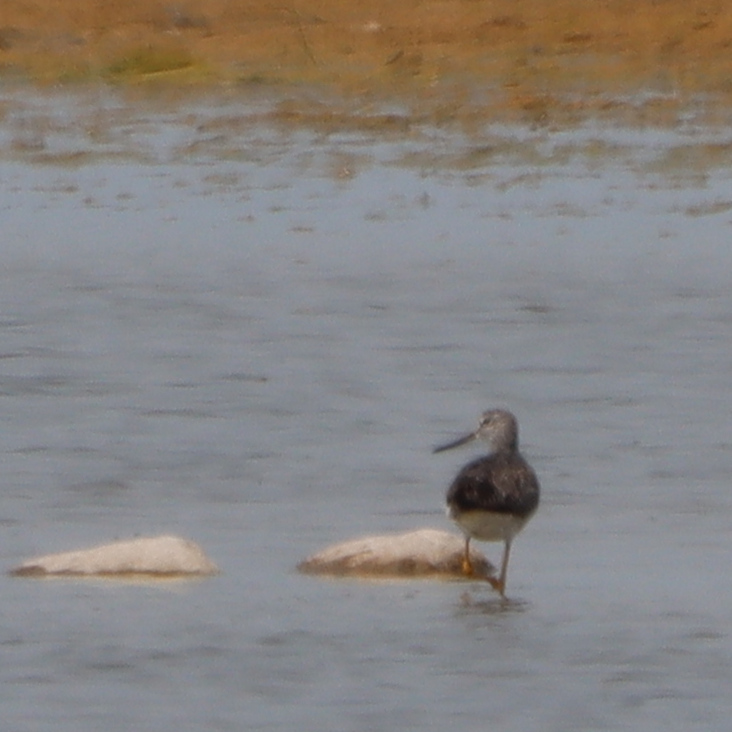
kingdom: Animalia
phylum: Chordata
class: Aves
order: Charadriiformes
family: Scolopacidae
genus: Tringa
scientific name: Tringa melanoleuca
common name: Greater yellowlegs
